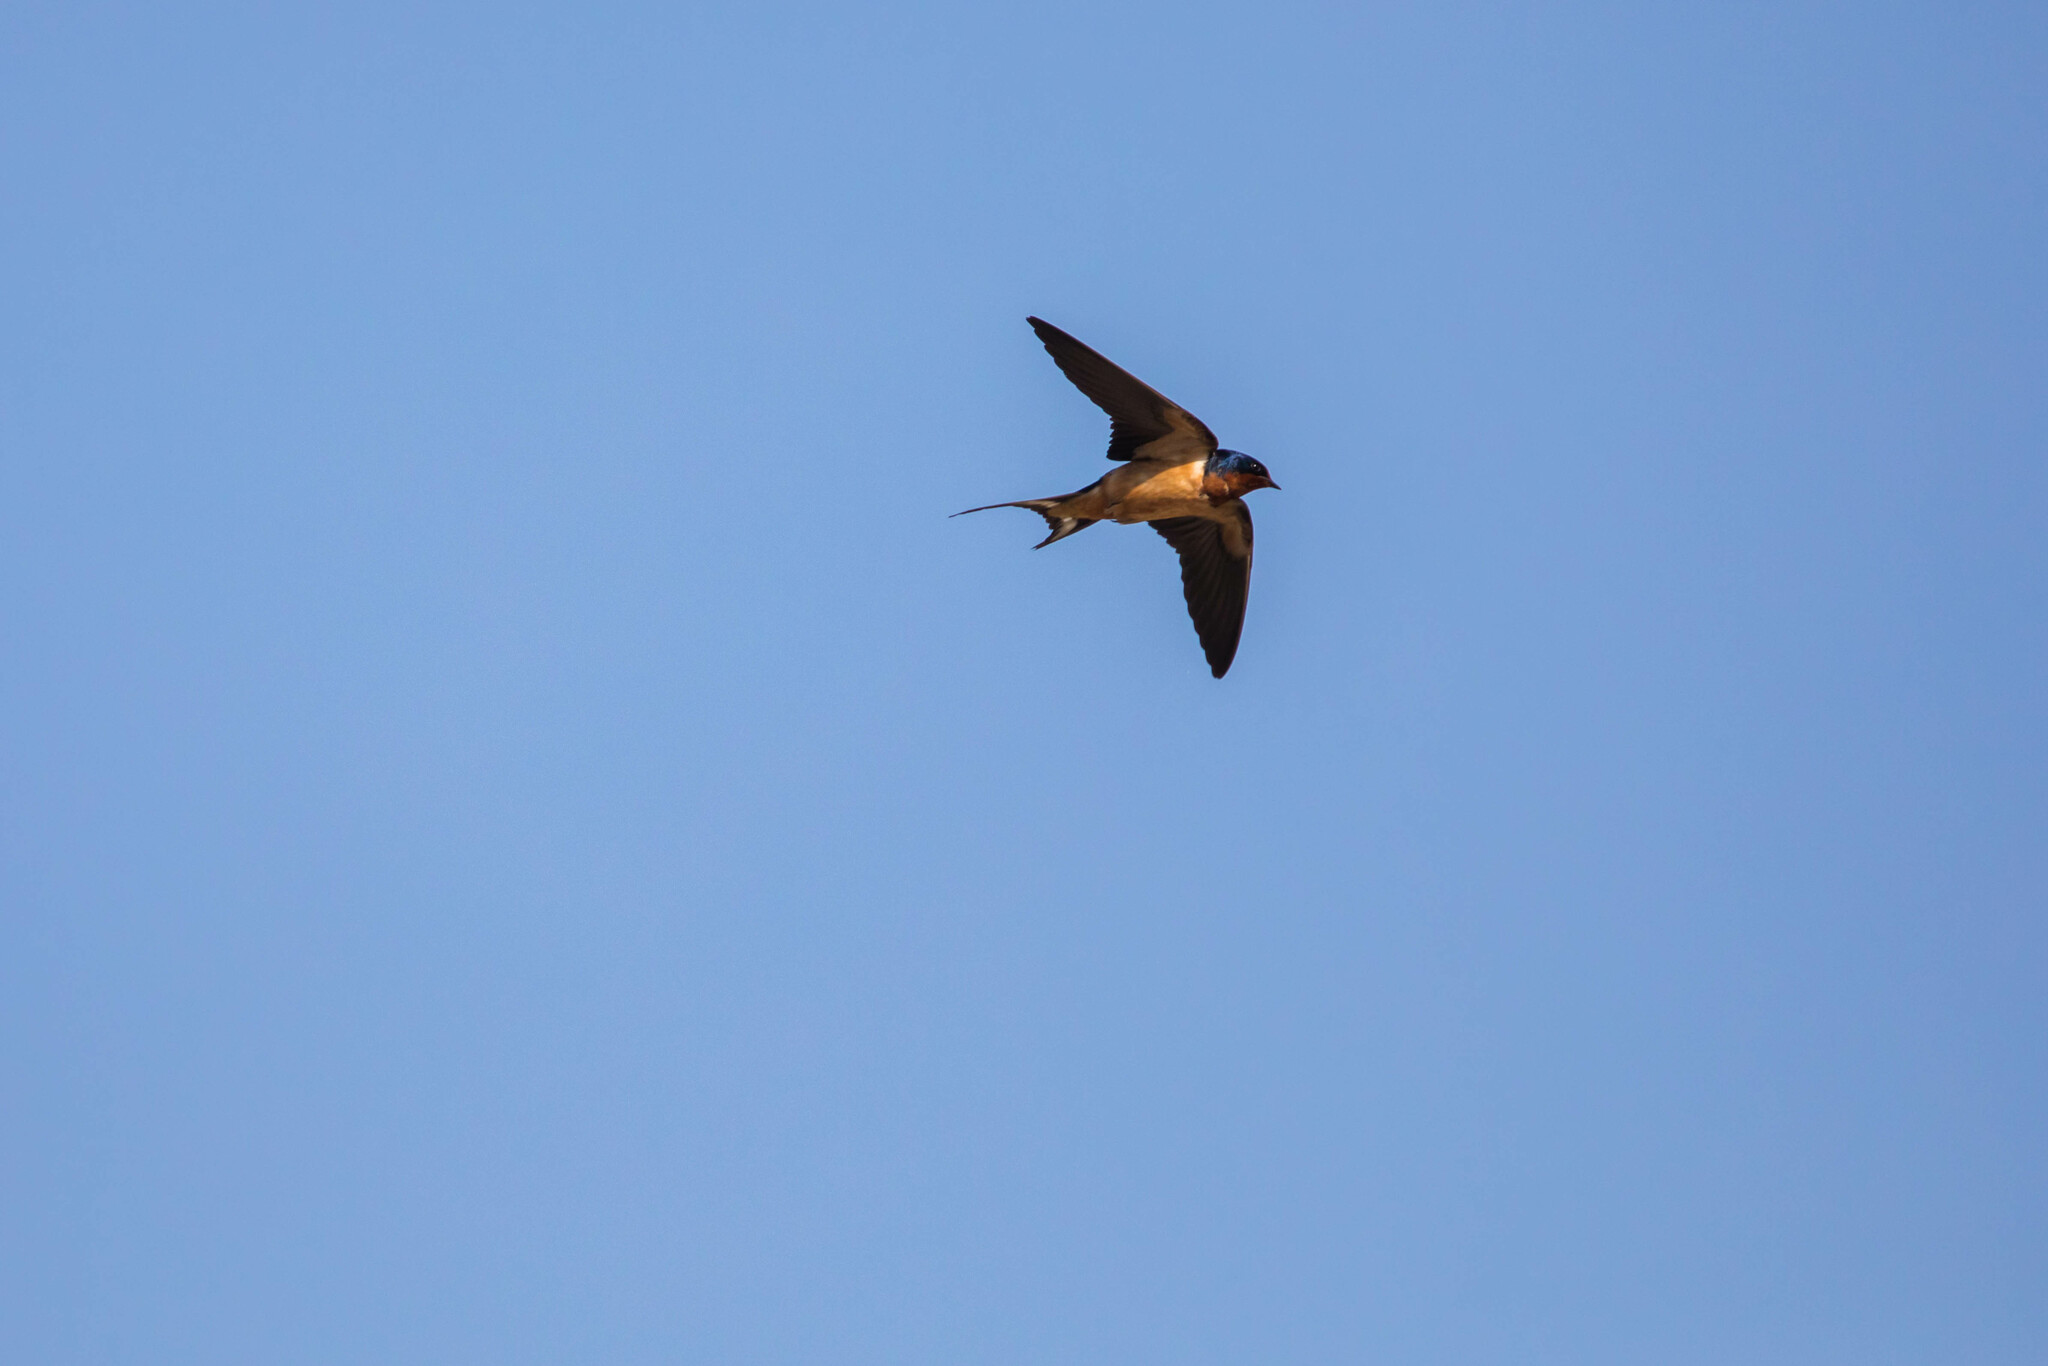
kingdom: Animalia
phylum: Chordata
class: Aves
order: Passeriformes
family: Hirundinidae
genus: Hirundo
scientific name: Hirundo rustica
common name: Barn swallow
